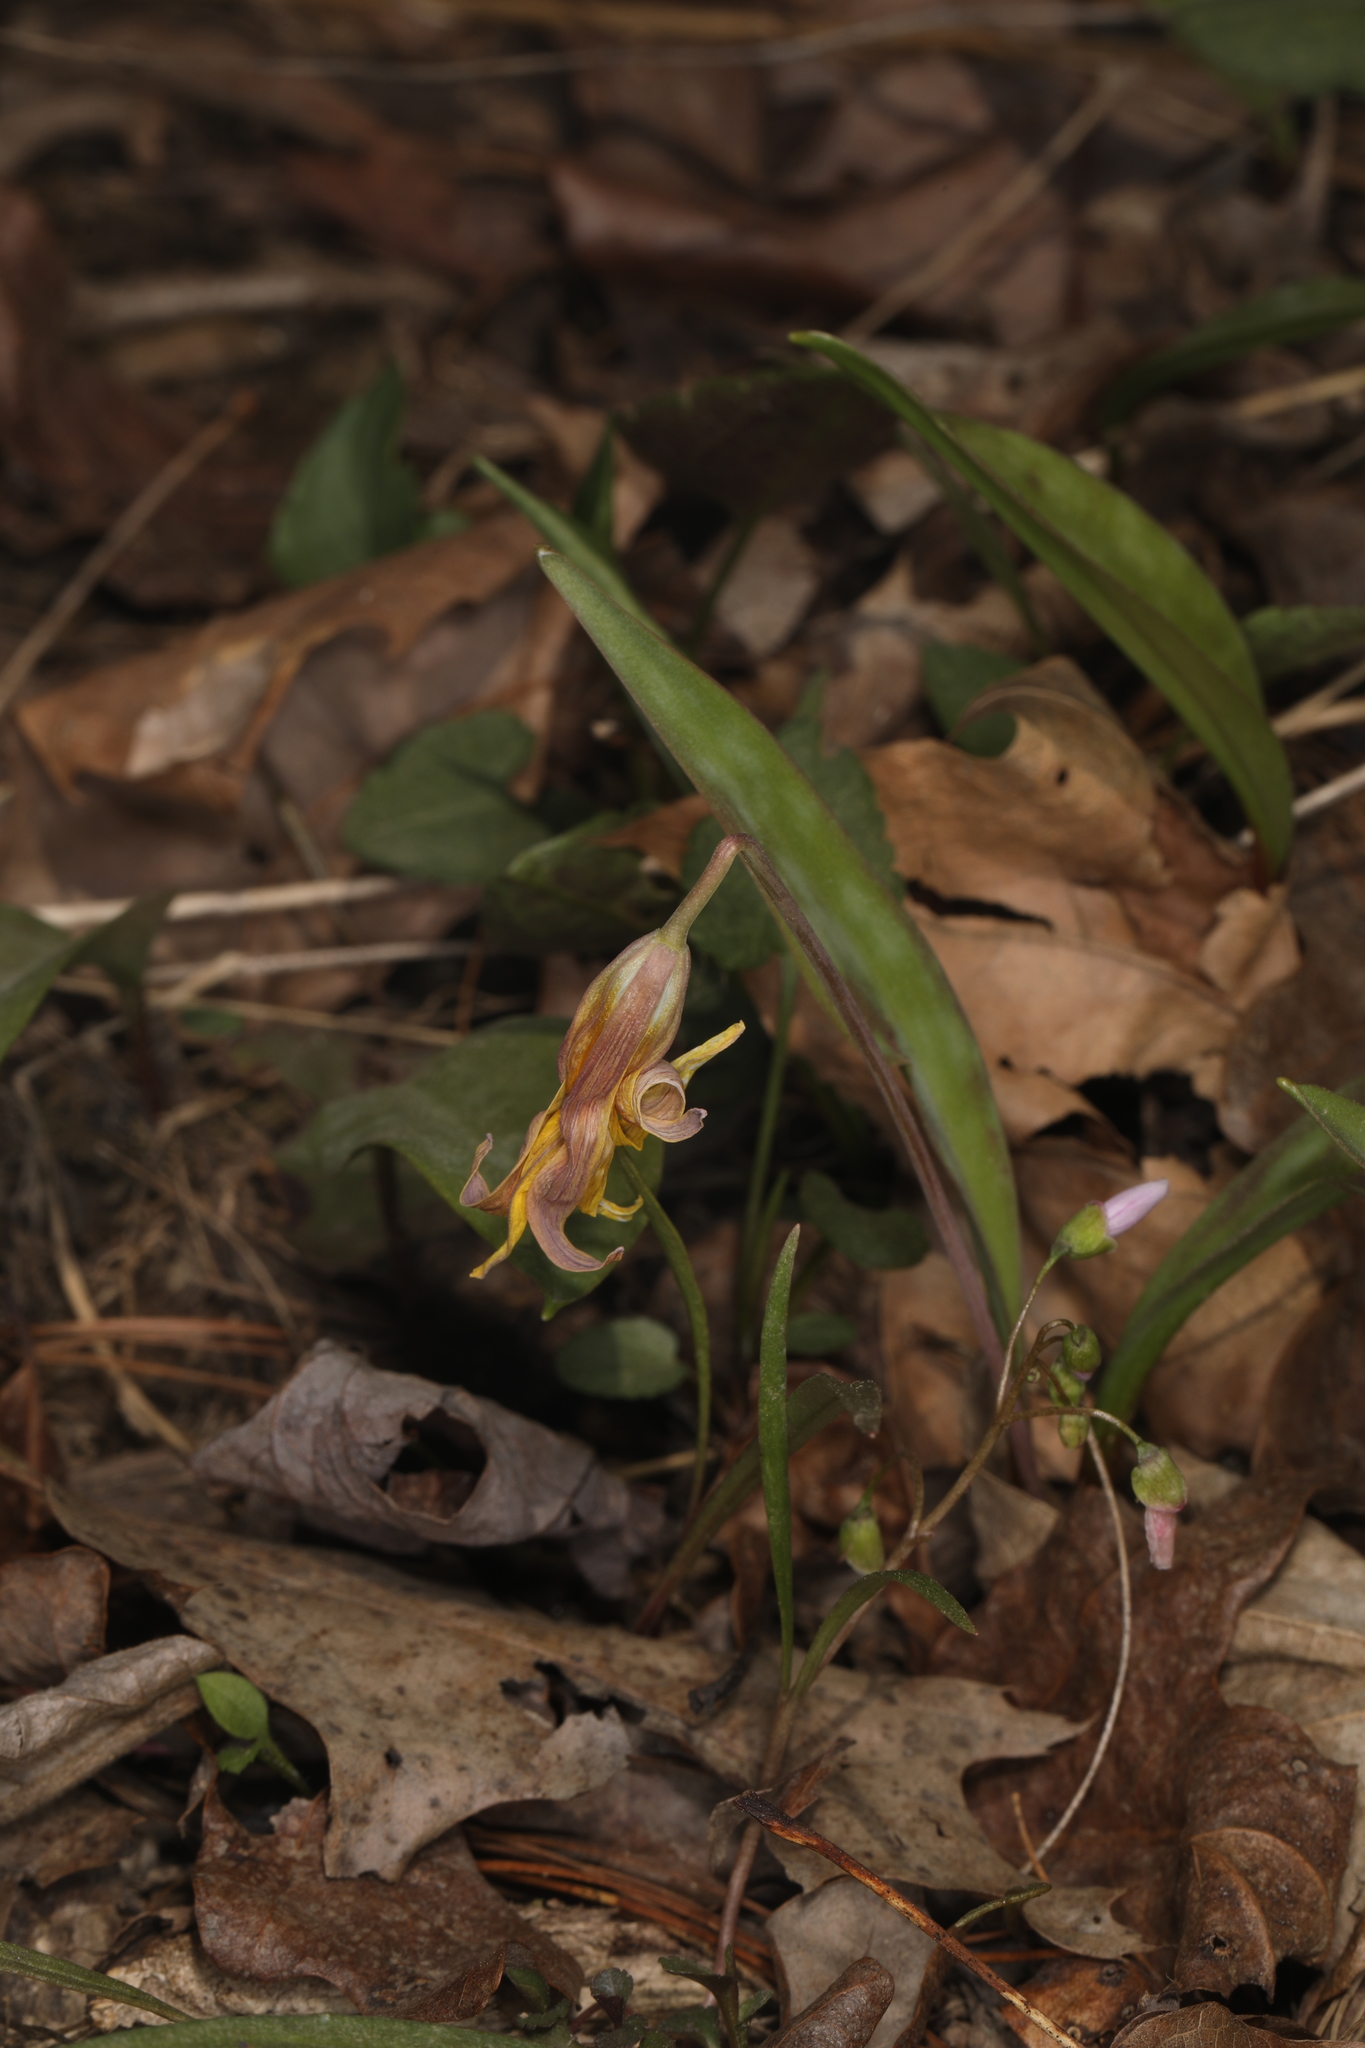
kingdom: Plantae
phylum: Tracheophyta
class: Liliopsida
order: Liliales
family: Liliaceae
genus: Erythronium
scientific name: Erythronium americanum
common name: Yellow adder's-tongue
